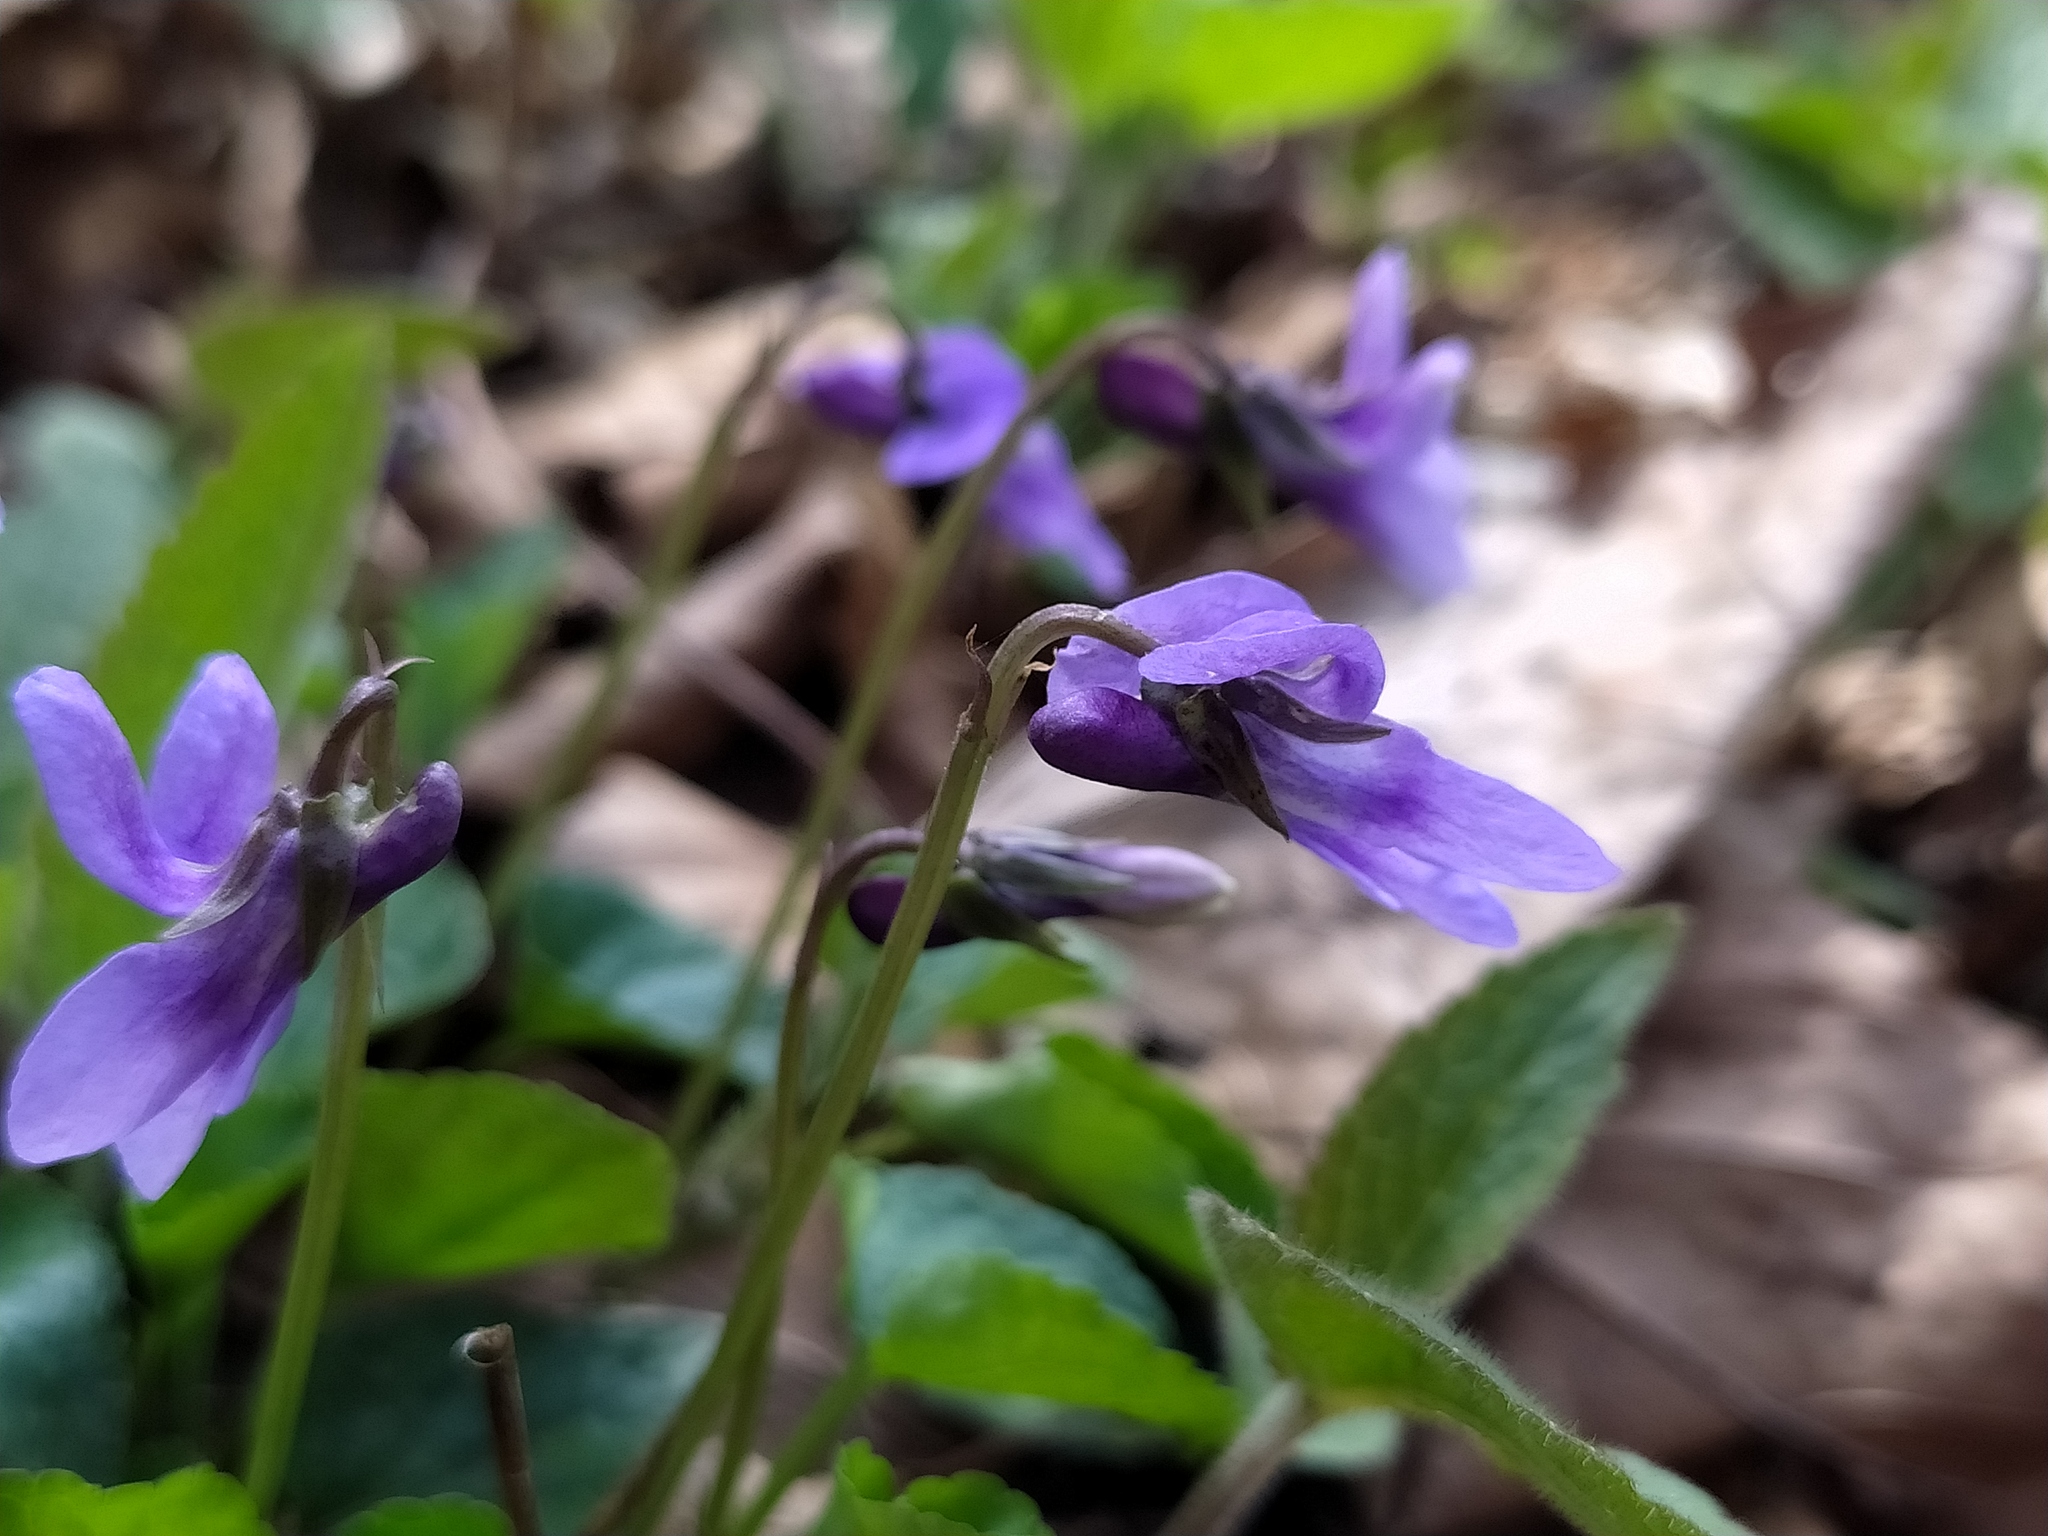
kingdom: Plantae
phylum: Tracheophyta
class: Magnoliopsida
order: Malpighiales
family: Violaceae
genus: Viola
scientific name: Viola reichenbachiana
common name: Early dog-violet
